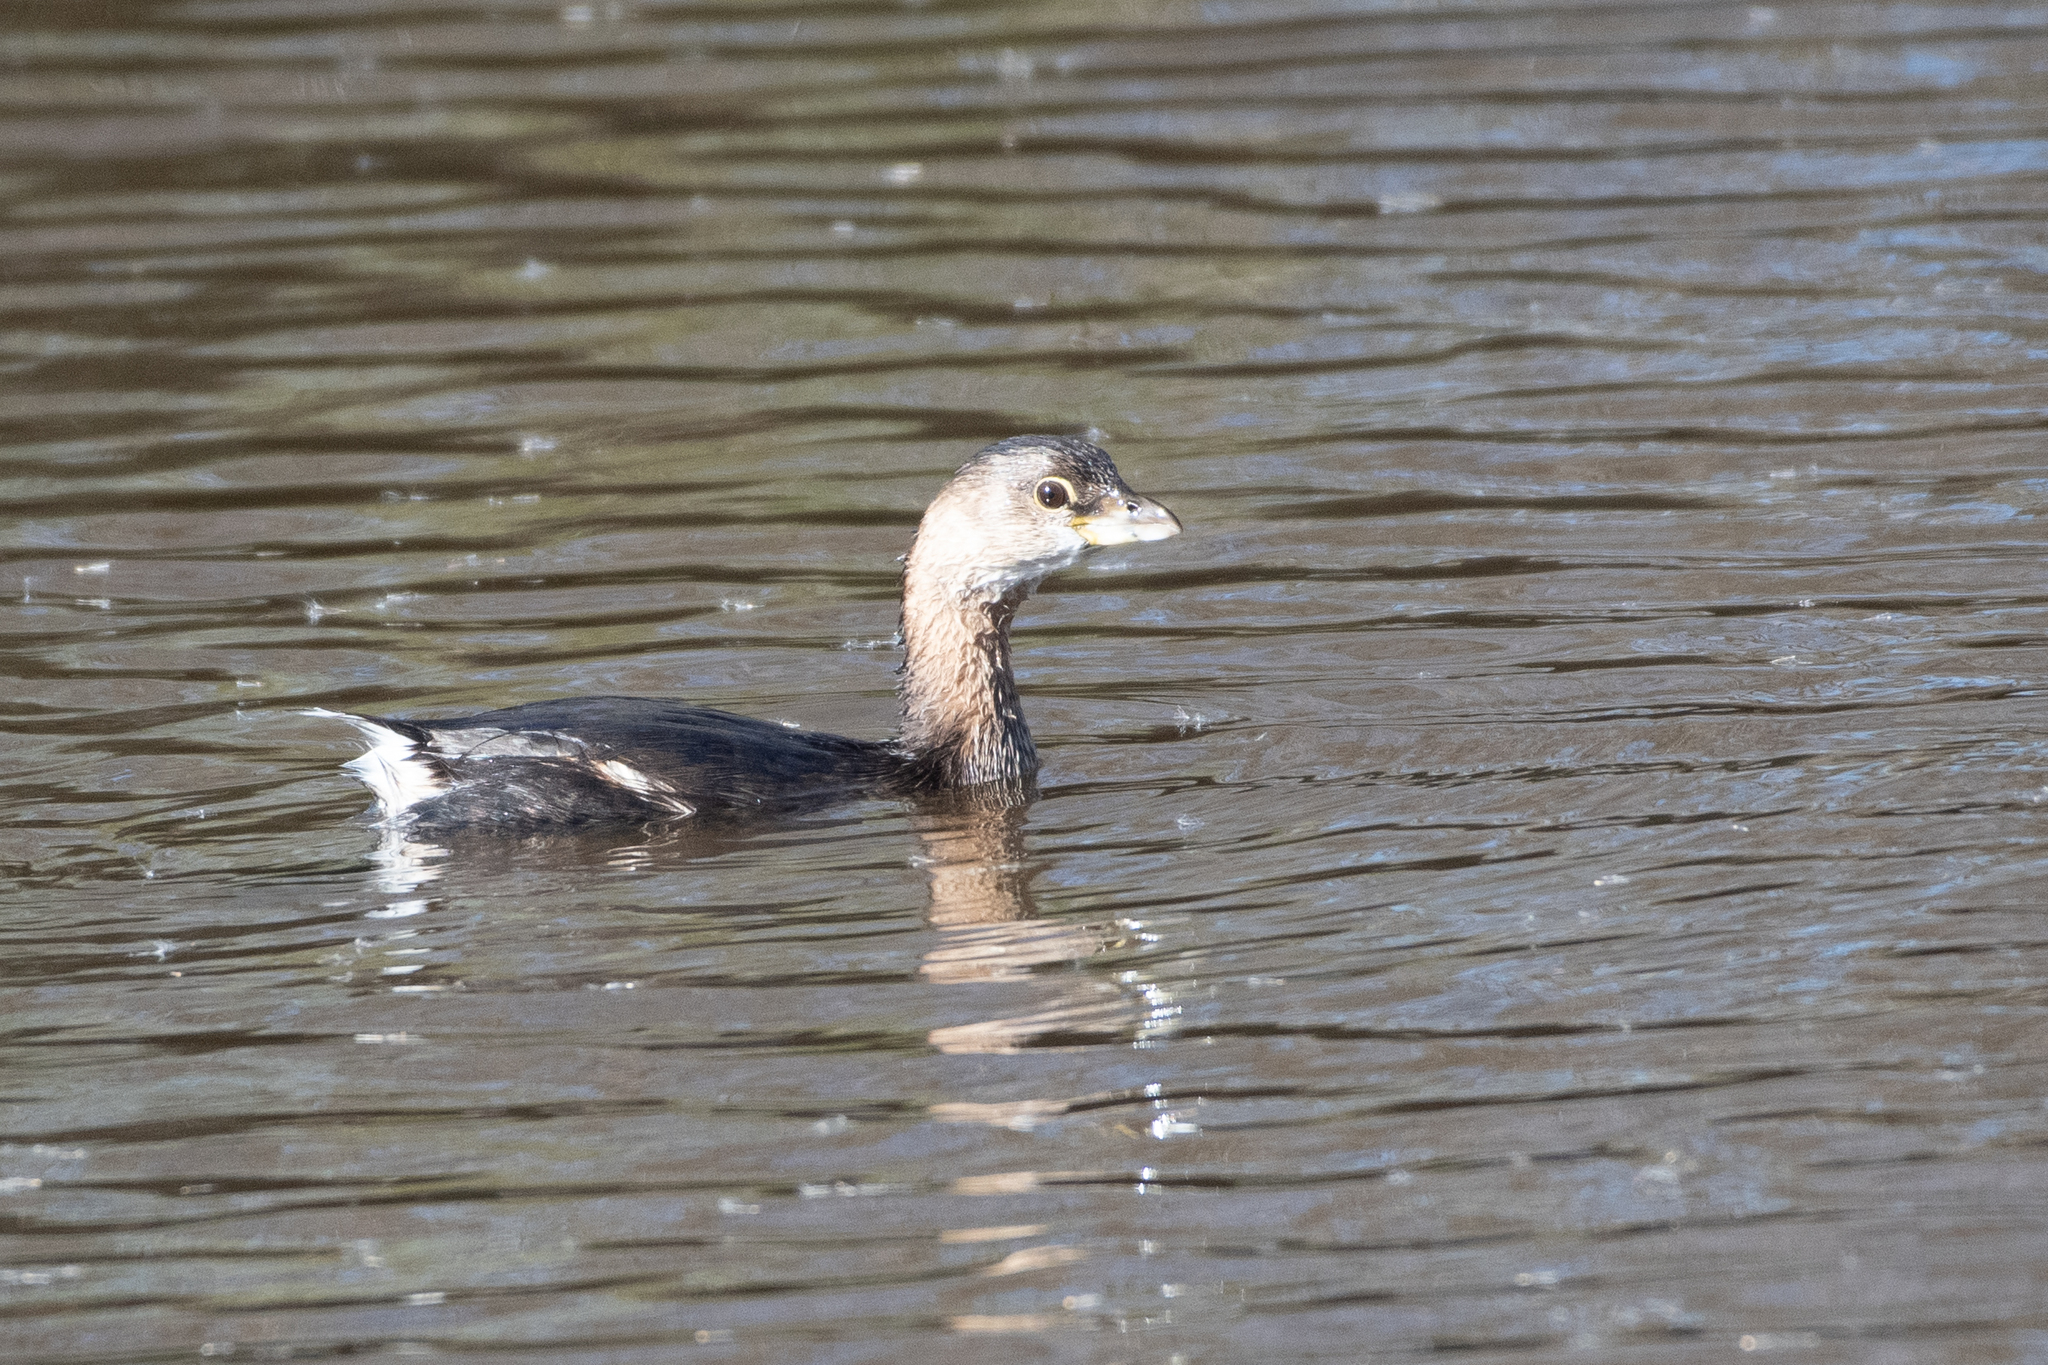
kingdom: Animalia
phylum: Chordata
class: Aves
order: Podicipediformes
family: Podicipedidae
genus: Podilymbus
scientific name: Podilymbus podiceps
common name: Pied-billed grebe
